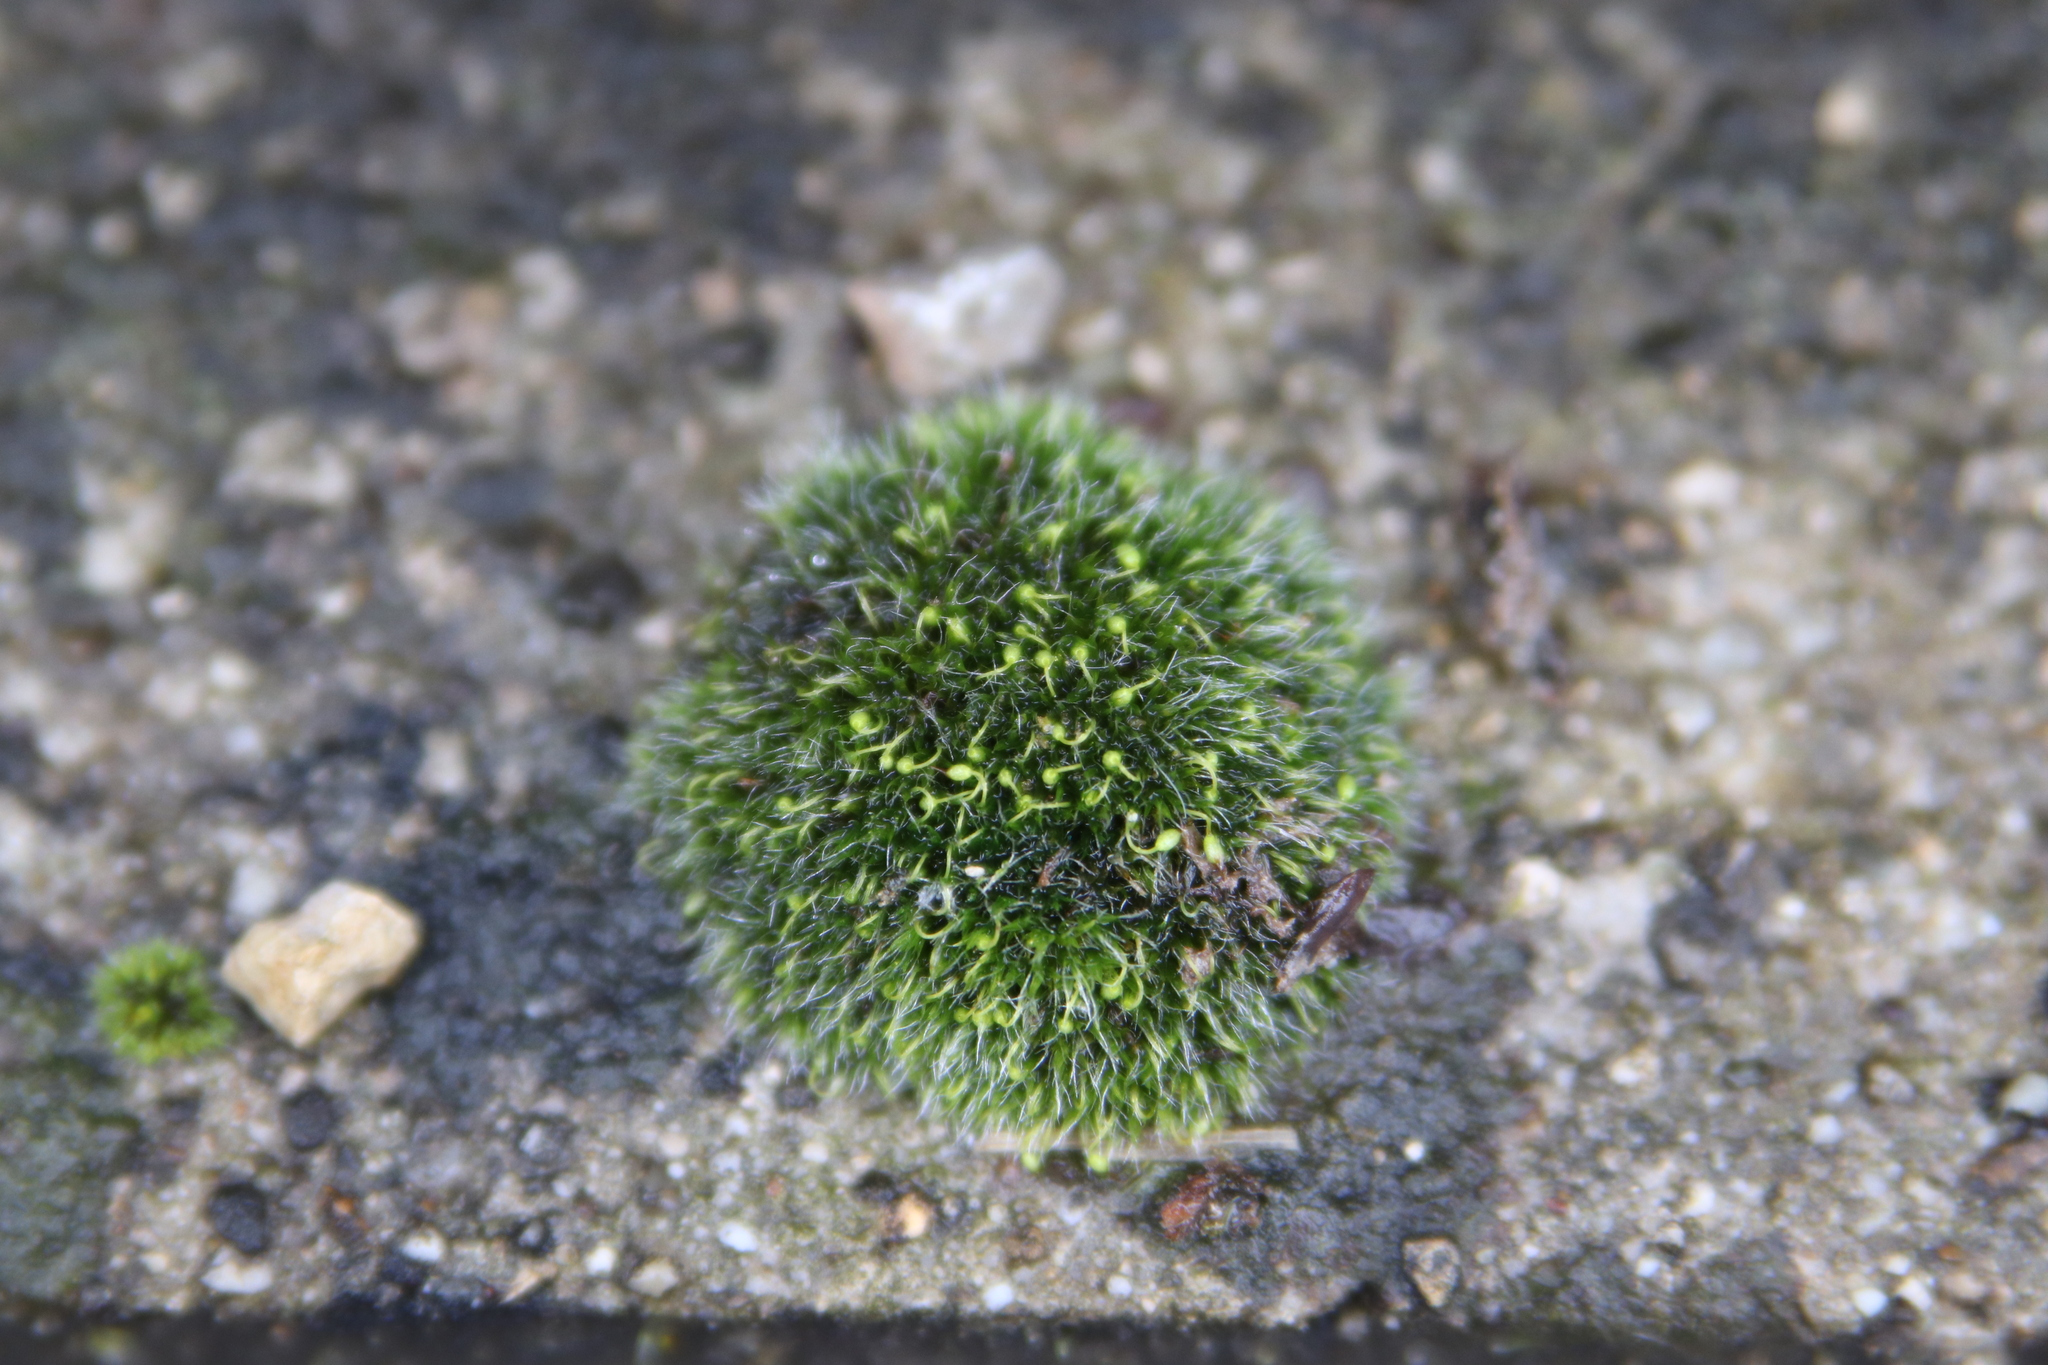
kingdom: Plantae
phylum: Bryophyta
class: Bryopsida
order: Grimmiales
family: Grimmiaceae
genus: Grimmia
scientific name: Grimmia pulvinata
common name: Grey-cushioned grimmia
